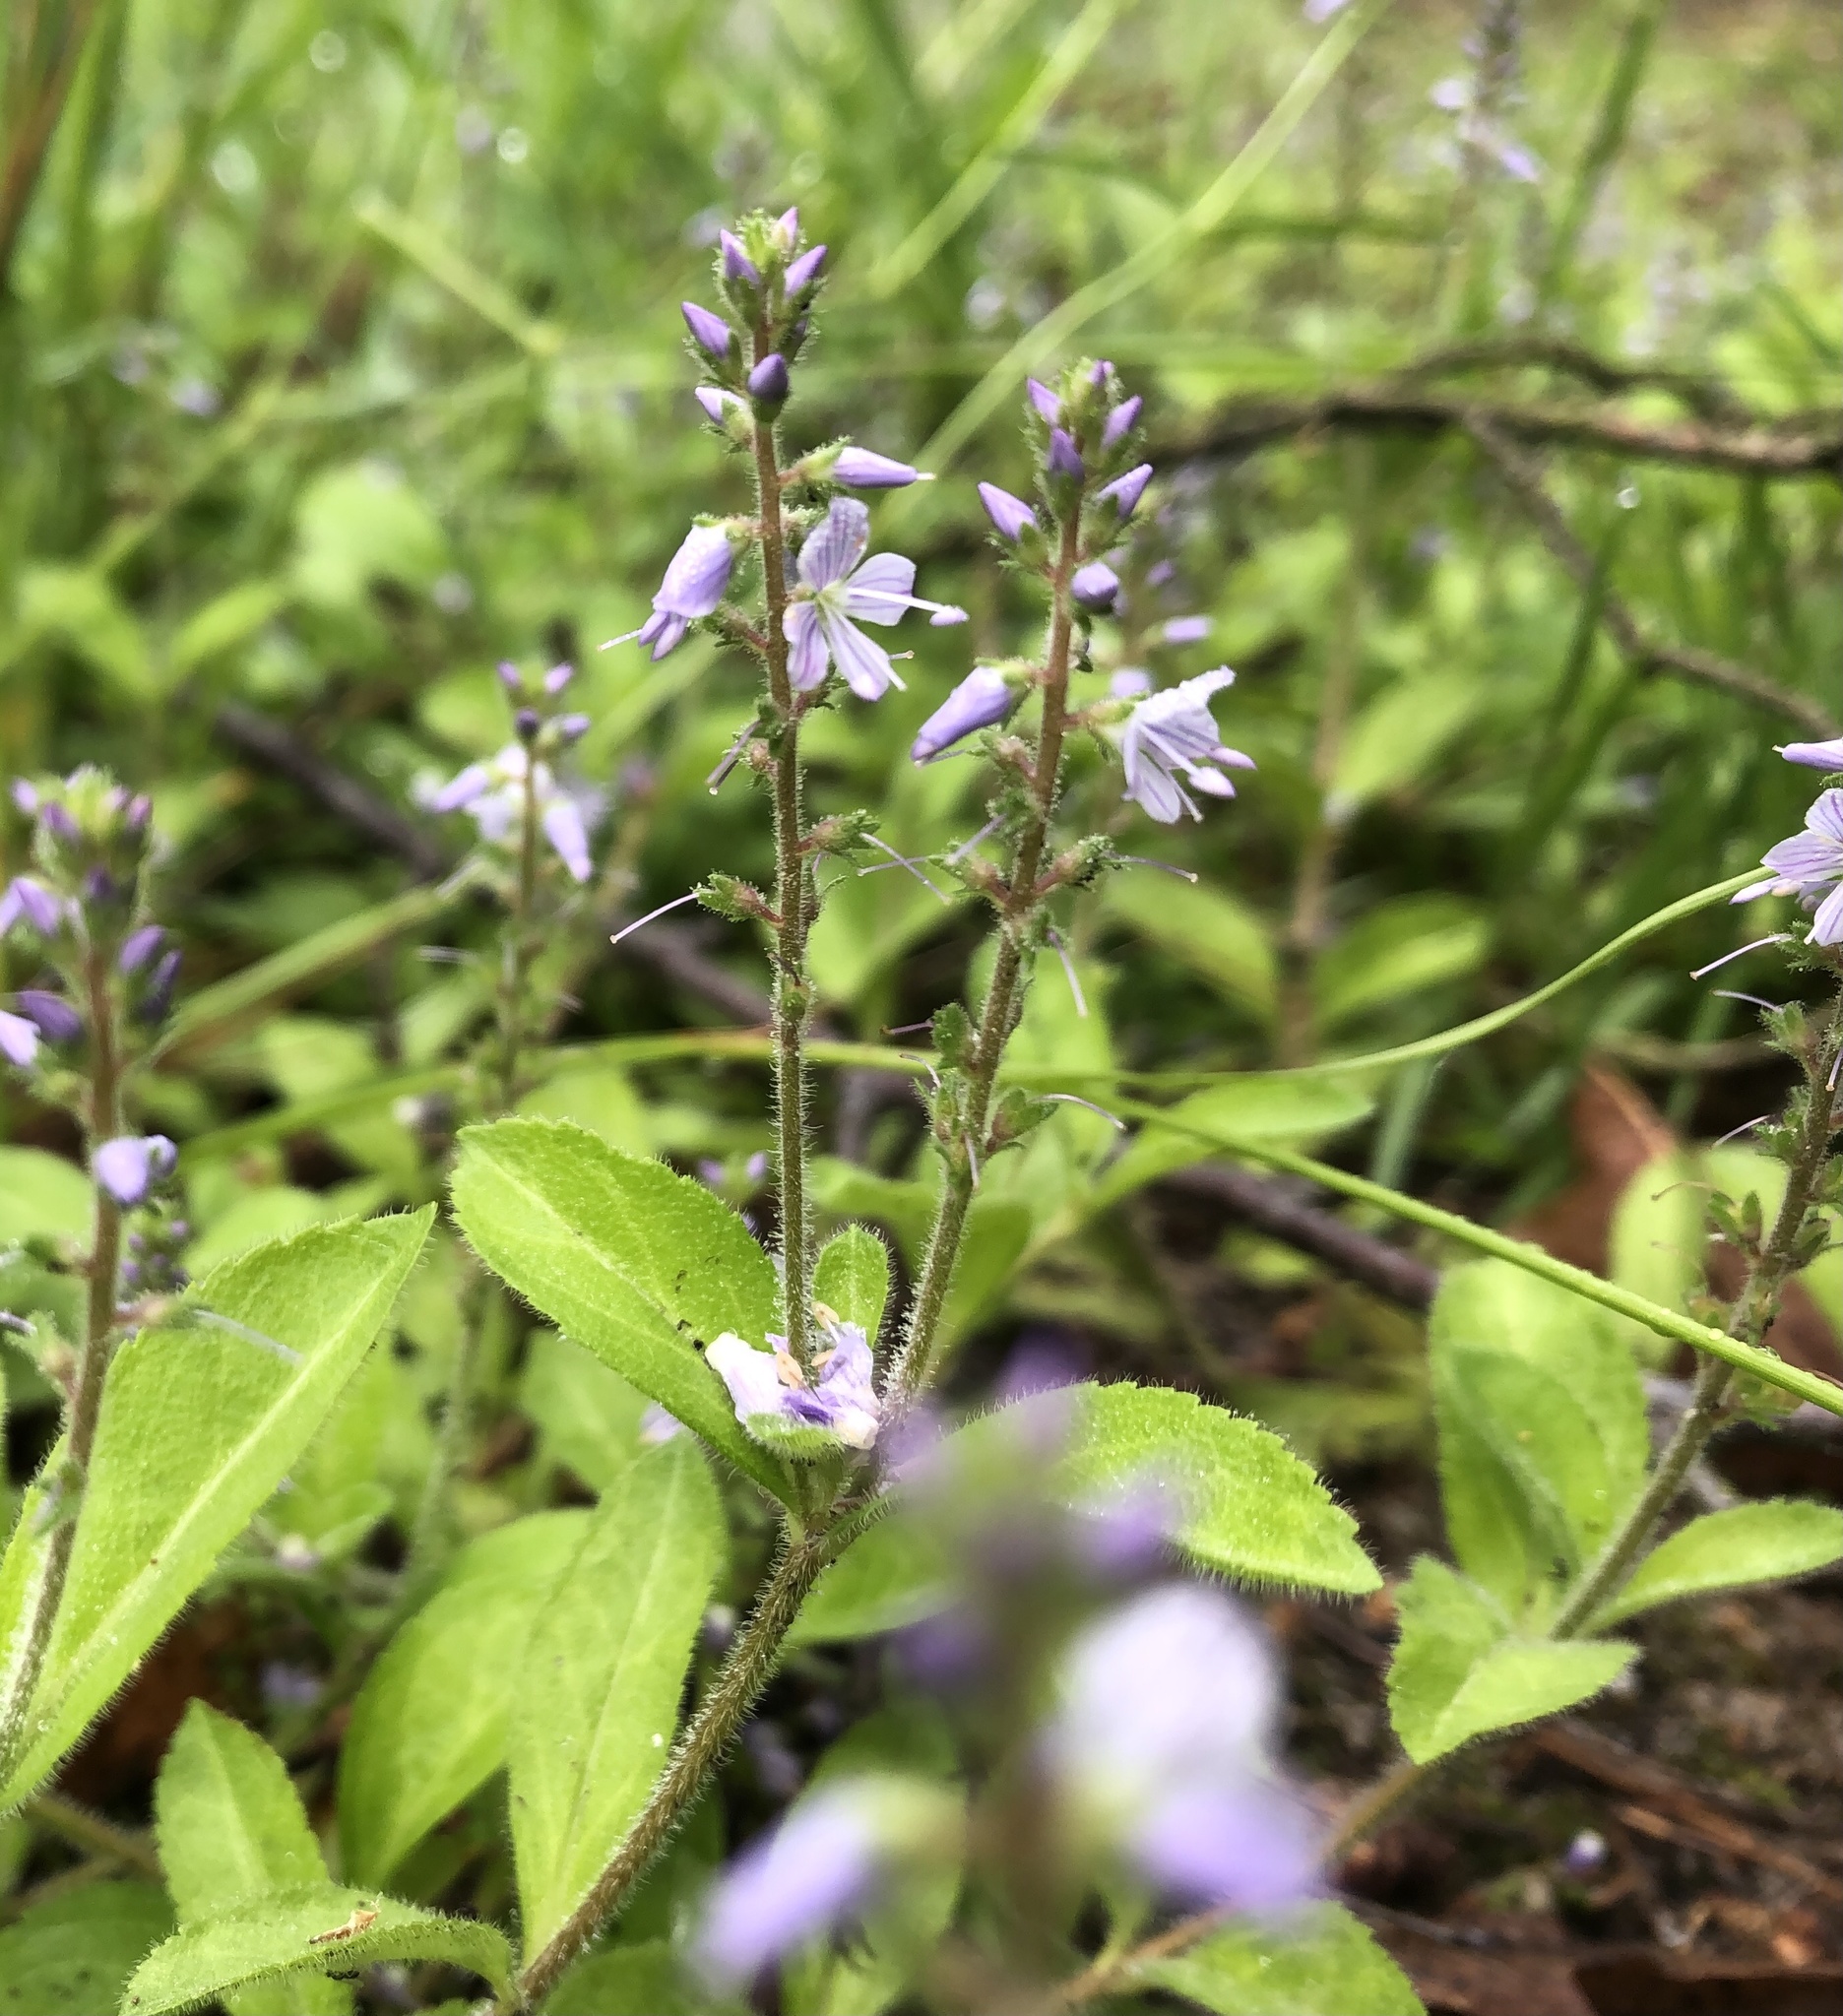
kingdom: Plantae
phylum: Tracheophyta
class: Magnoliopsida
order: Lamiales
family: Plantaginaceae
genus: Veronica
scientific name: Veronica officinalis
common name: Common speedwell
